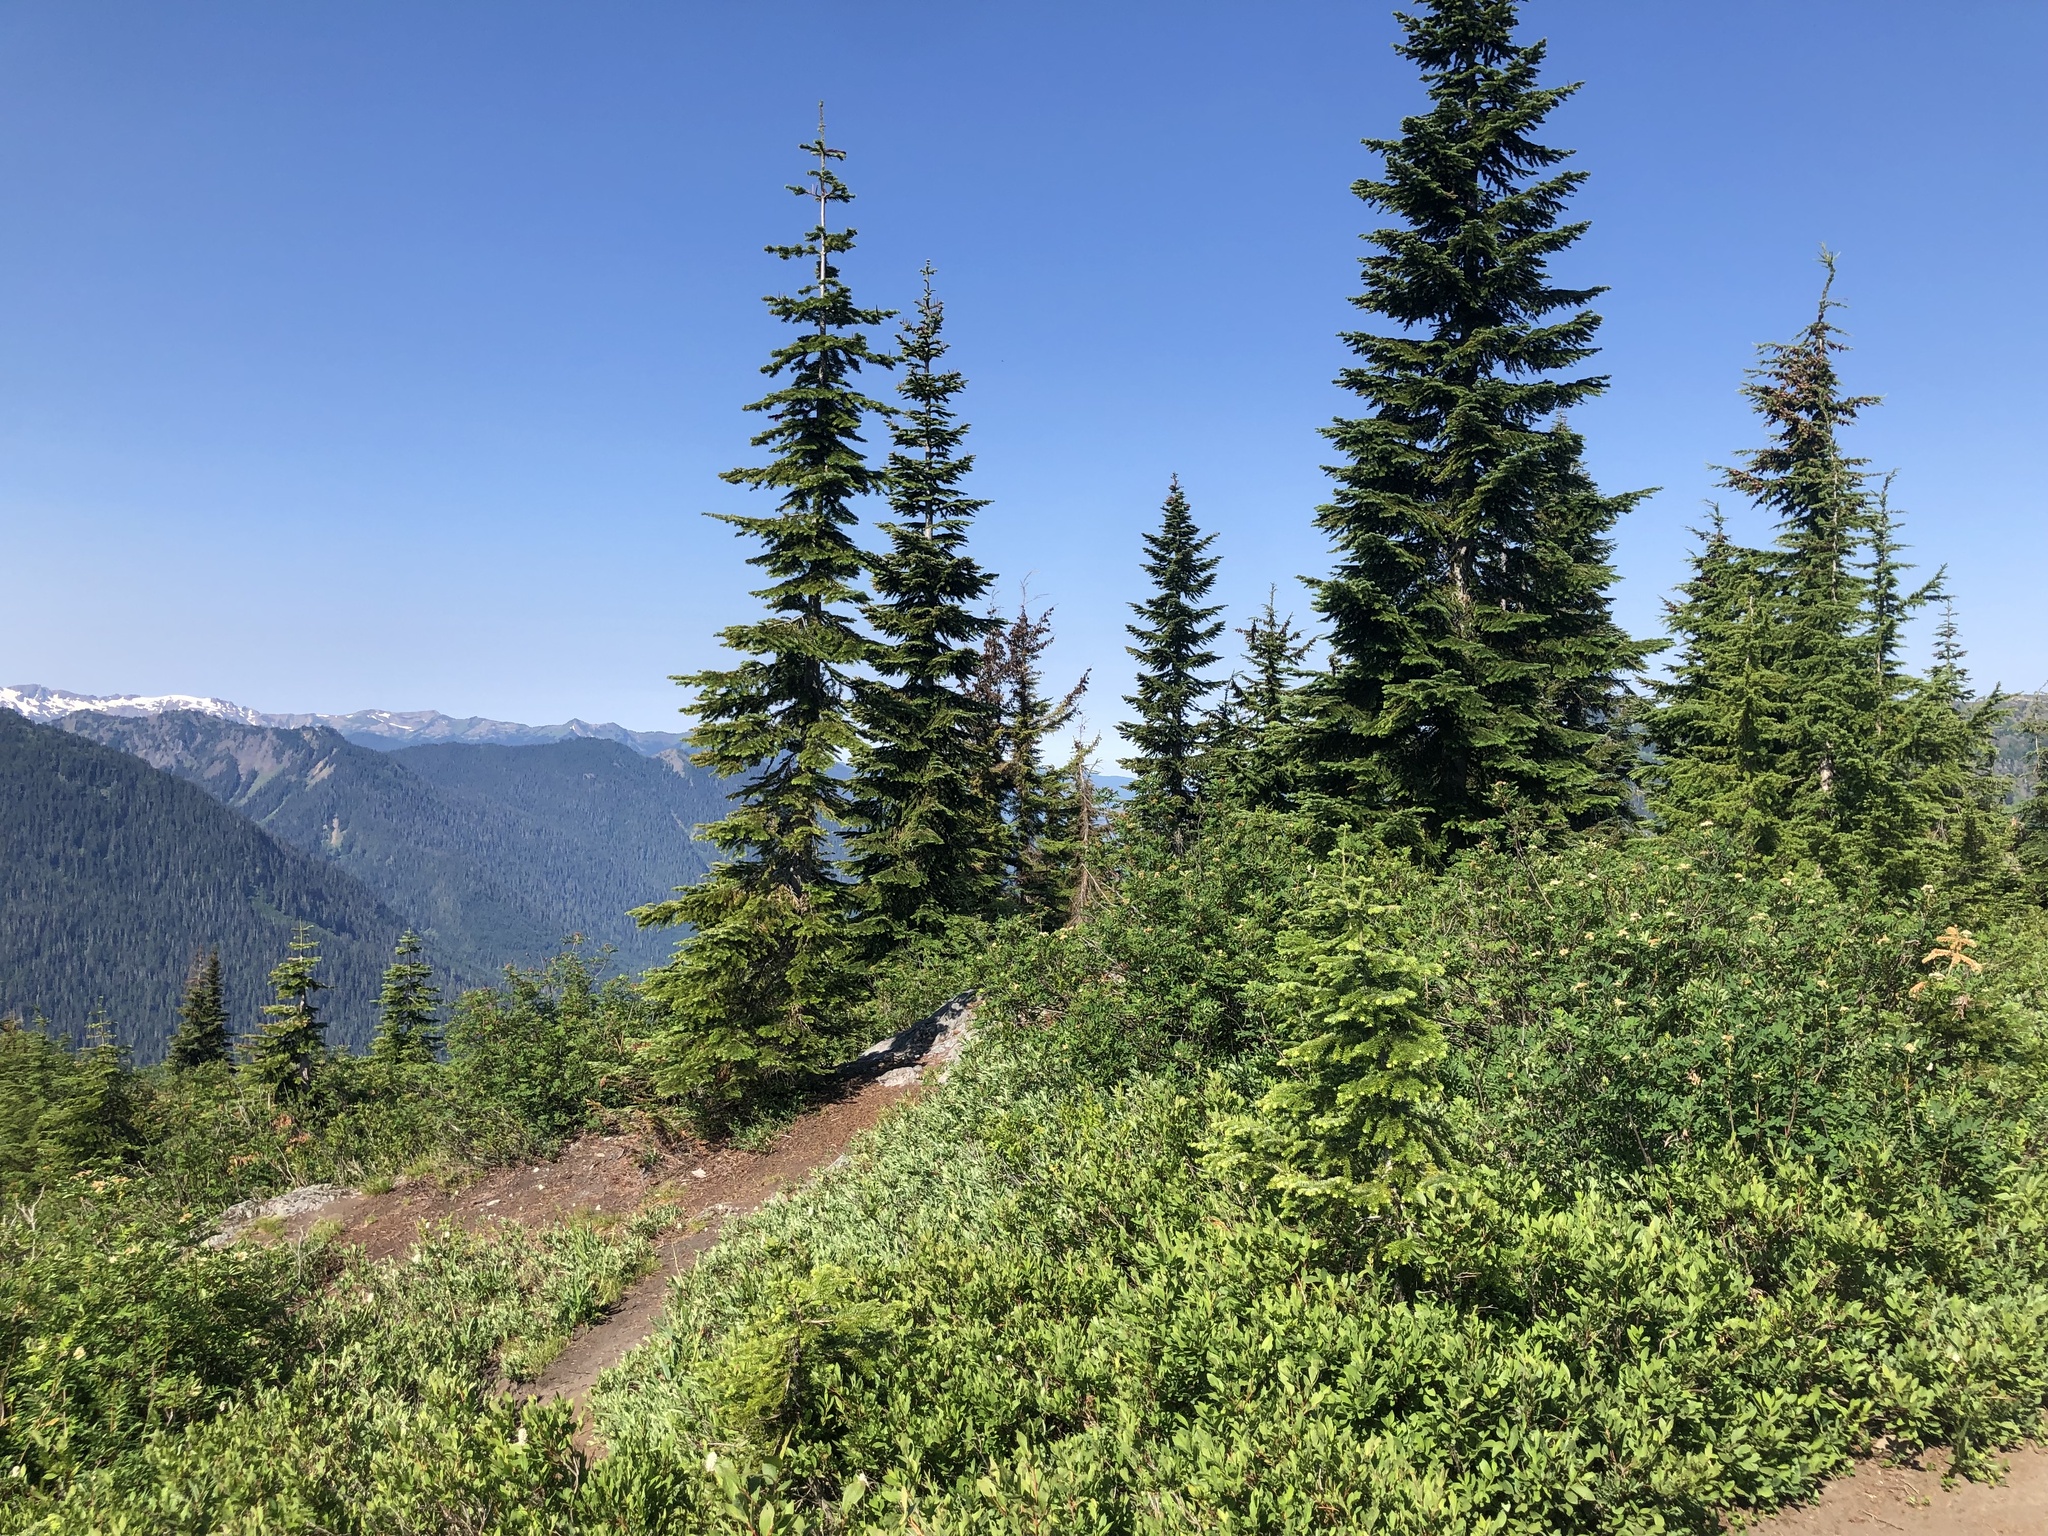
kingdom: Plantae
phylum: Tracheophyta
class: Pinopsida
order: Pinales
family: Pinaceae
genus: Abies
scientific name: Abies amabilis
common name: Pacific silver fir
